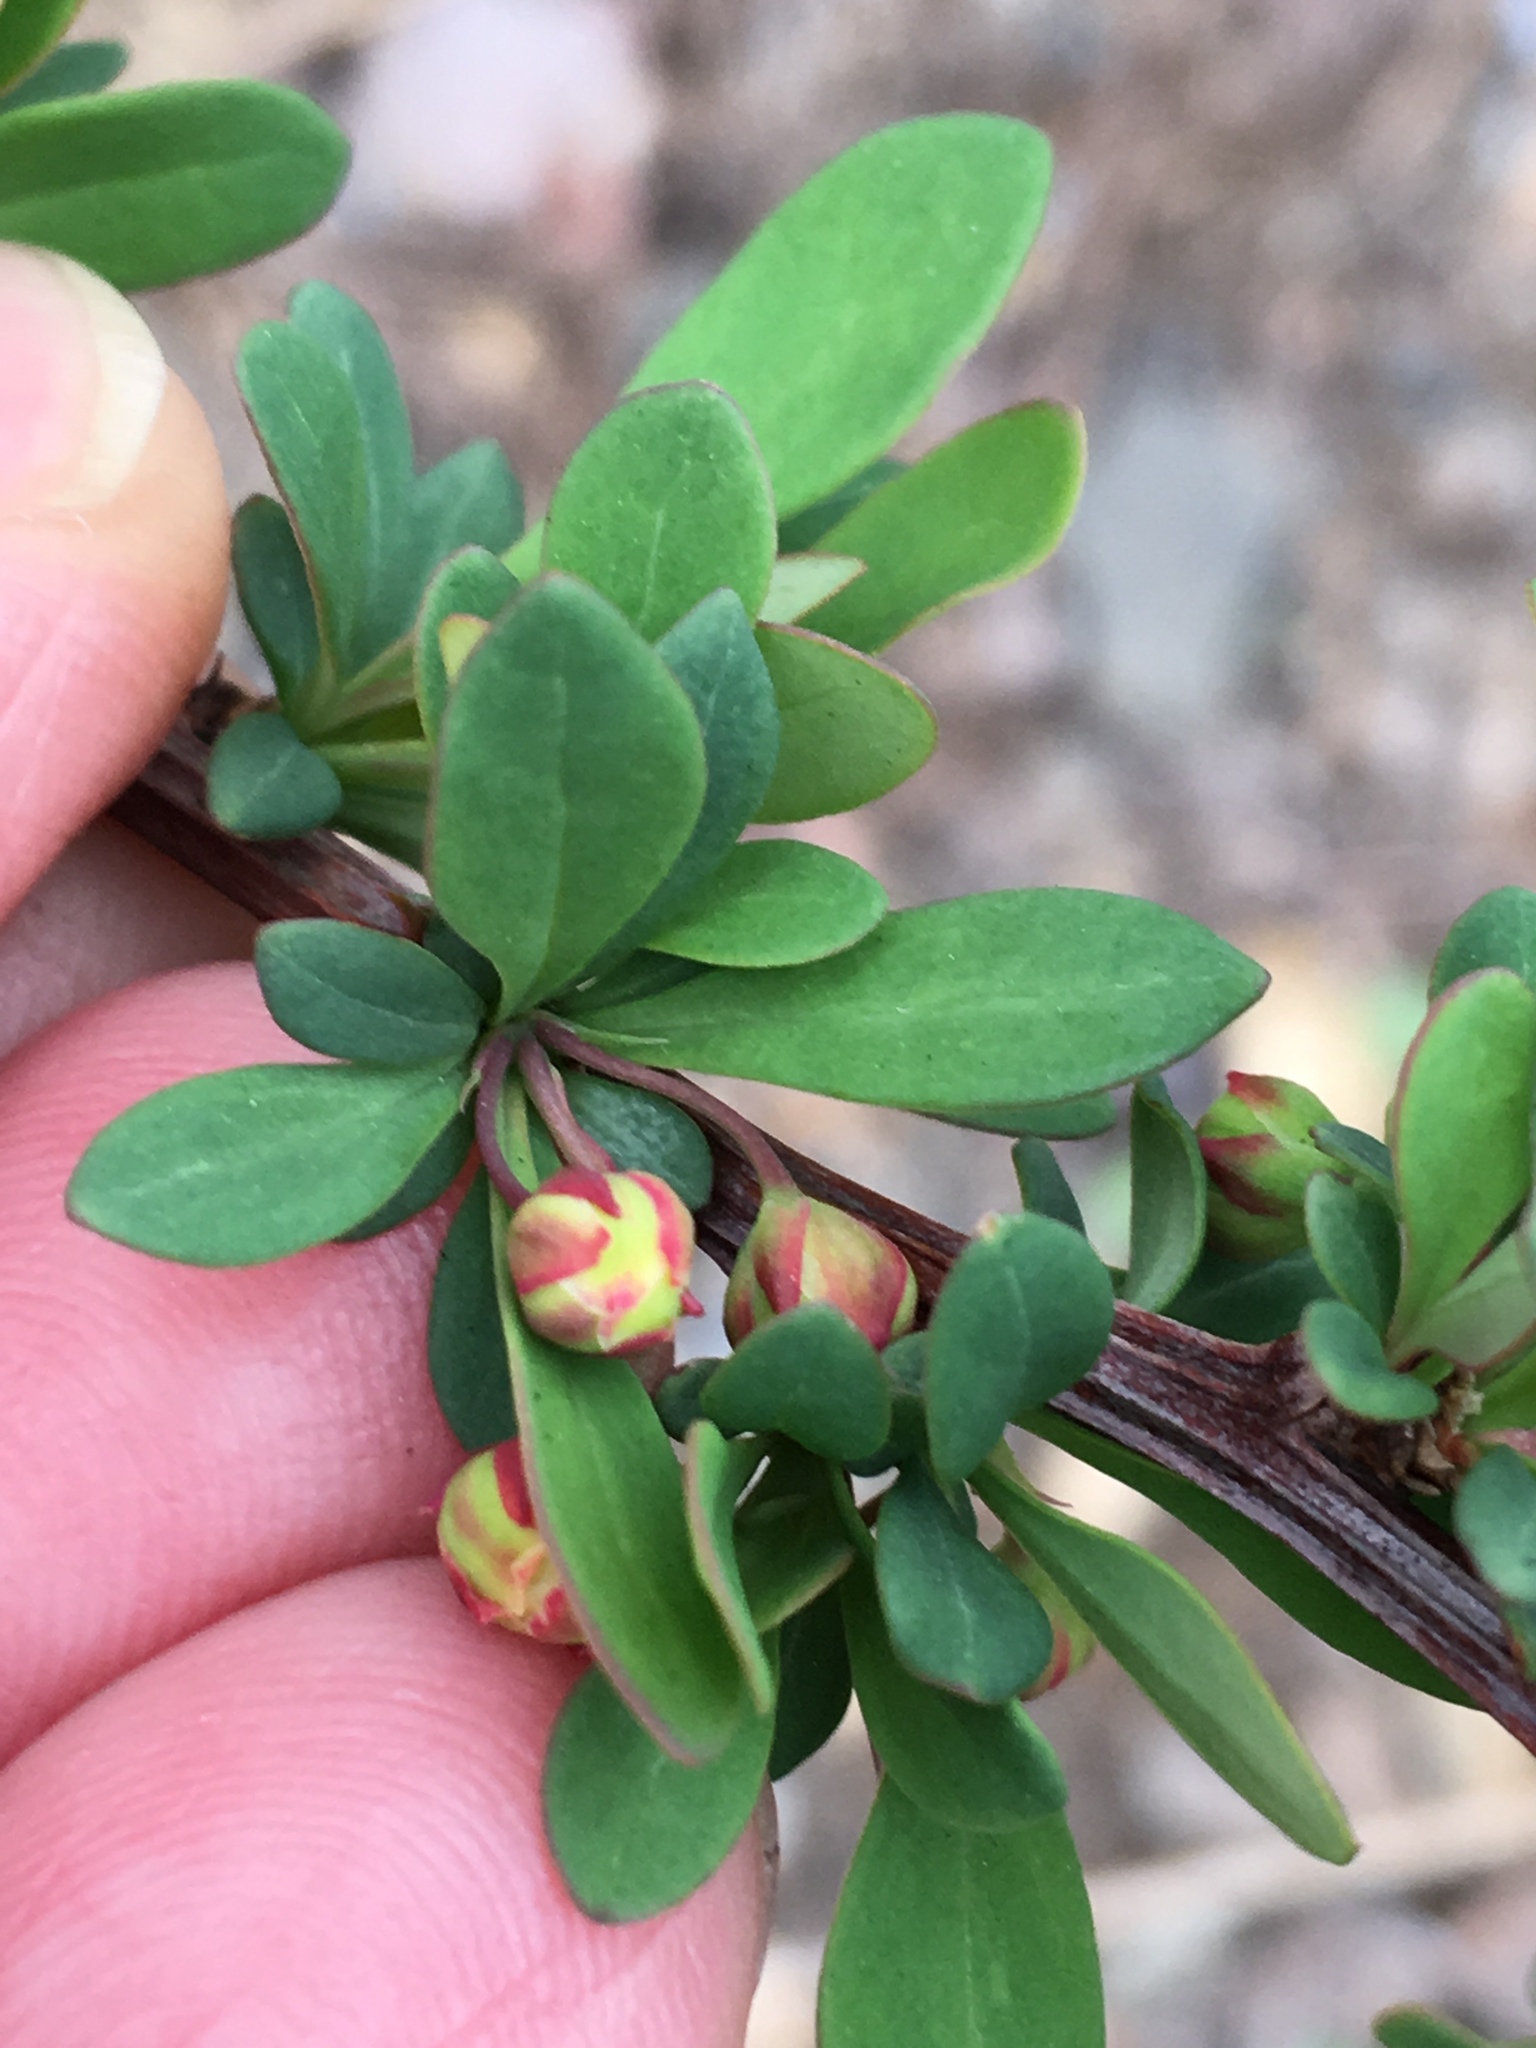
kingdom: Plantae
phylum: Tracheophyta
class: Magnoliopsida
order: Ranunculales
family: Berberidaceae
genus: Berberis
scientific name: Berberis thunbergii
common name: Japanese barberry
